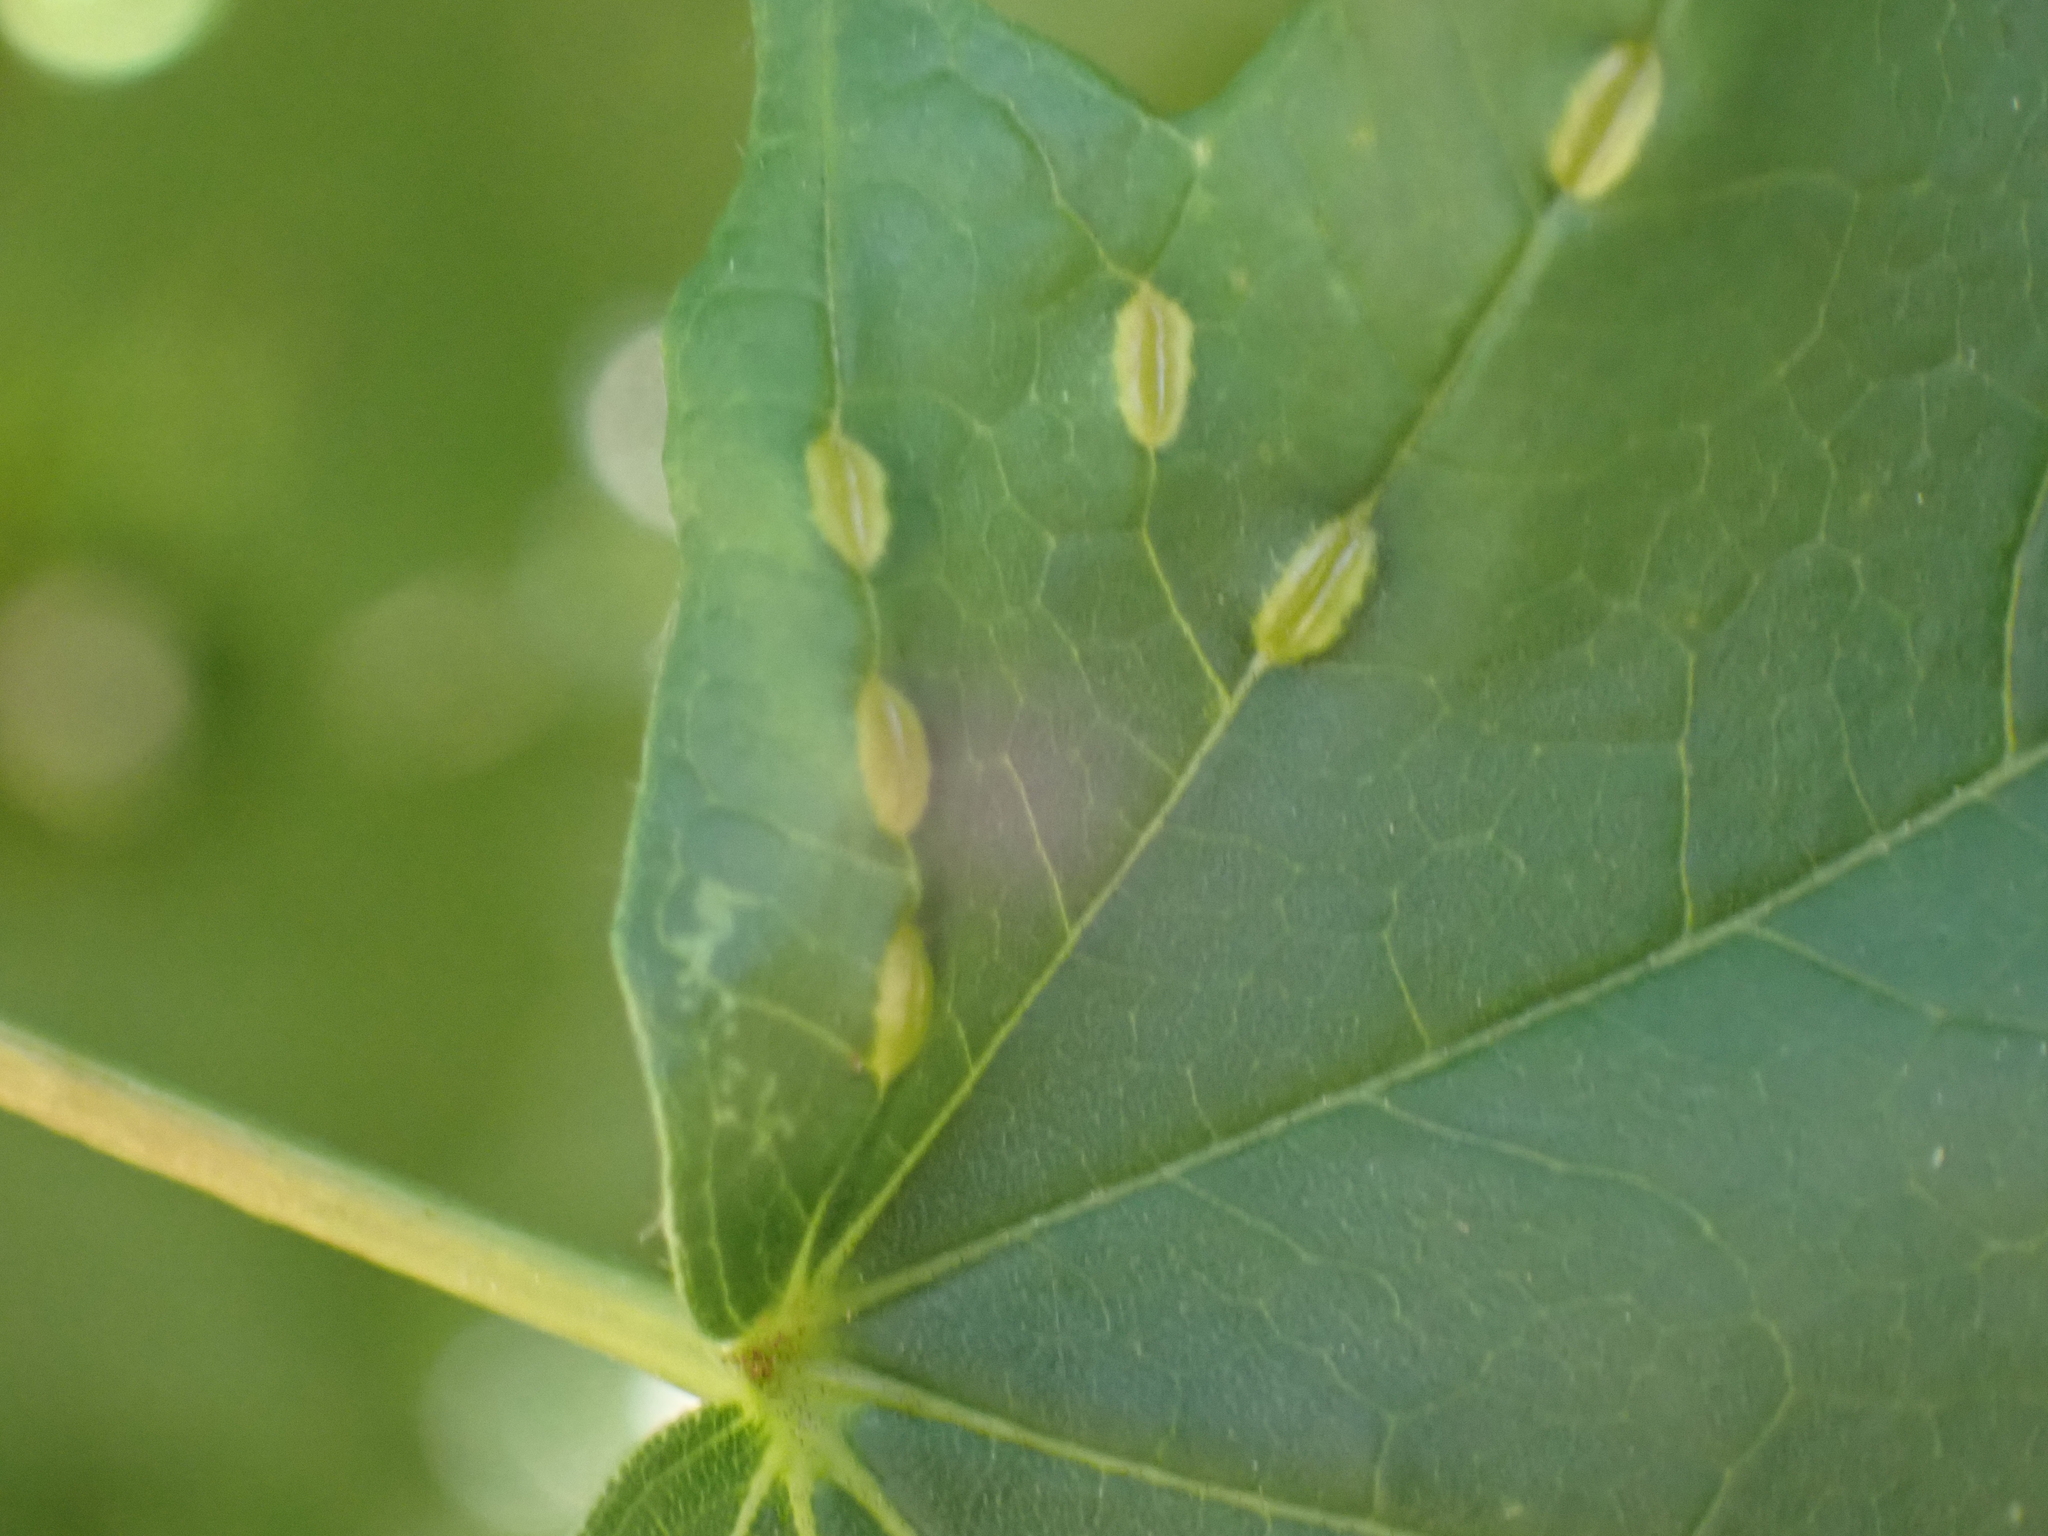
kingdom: Animalia
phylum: Arthropoda
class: Insecta
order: Diptera
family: Cecidomyiidae
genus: Dasineura
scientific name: Dasineura communis
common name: Gouty vein midge
